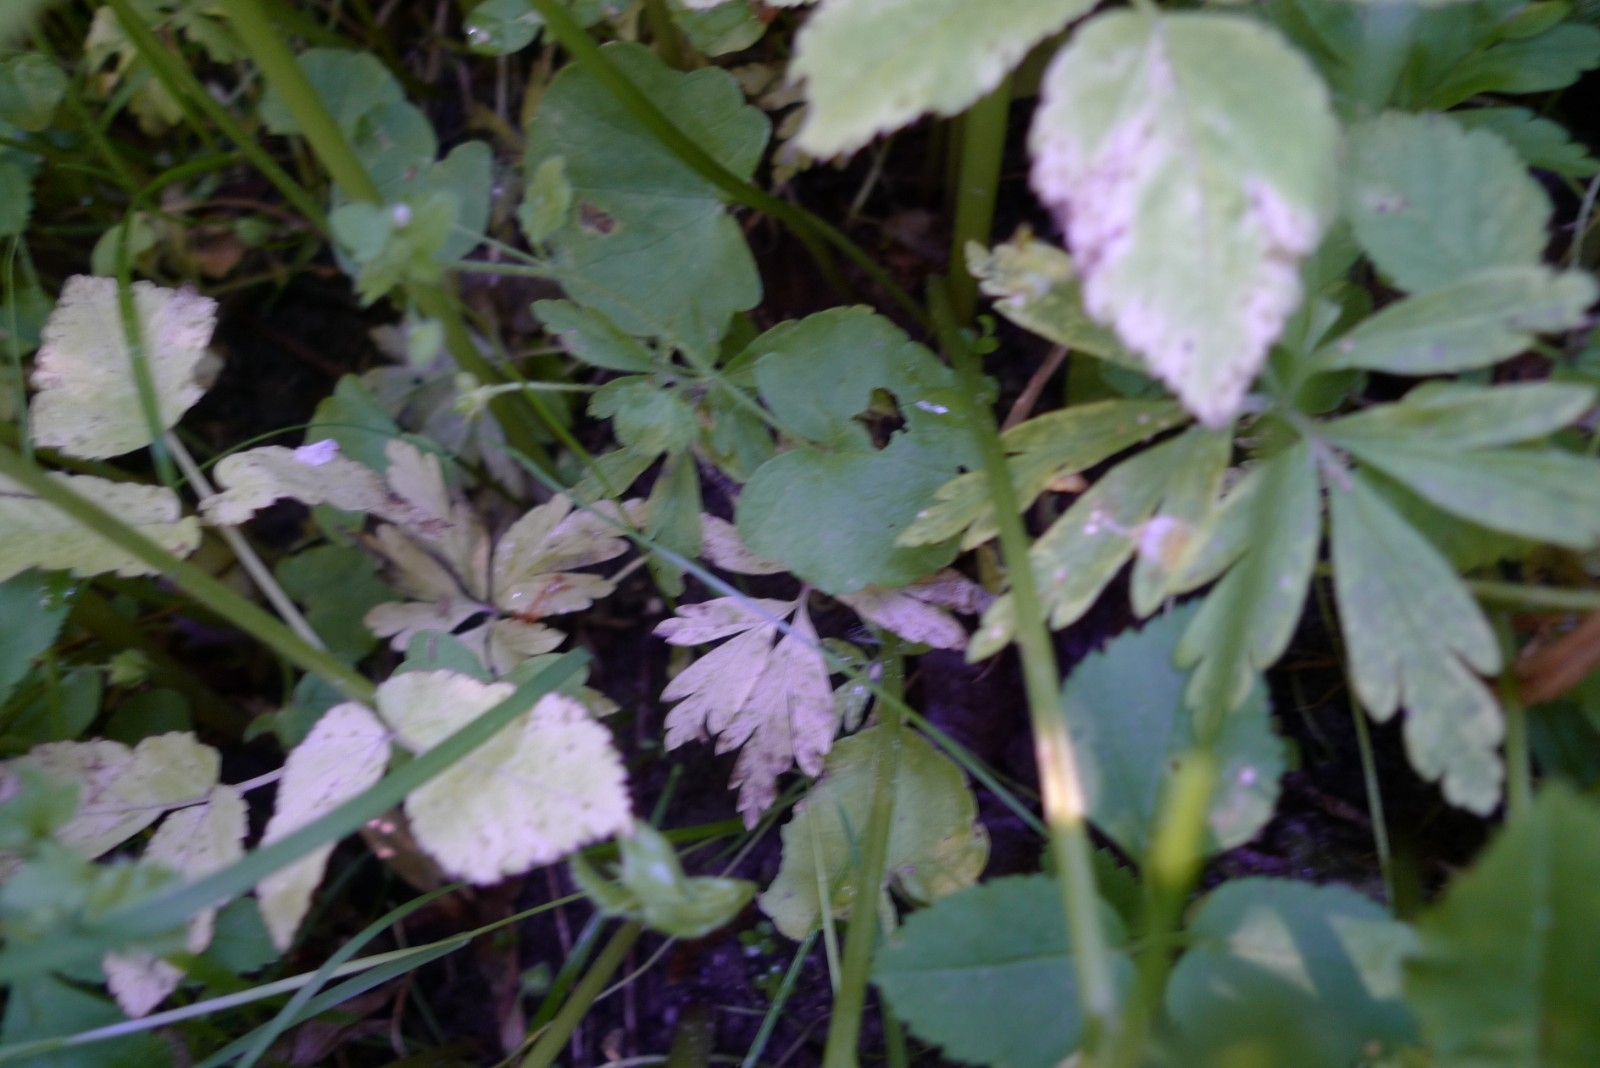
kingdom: Plantae
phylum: Tracheophyta
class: Magnoliopsida
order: Ranunculales
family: Ranunculaceae
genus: Anemone
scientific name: Anemone ranunculoides
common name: Yellow anemone
